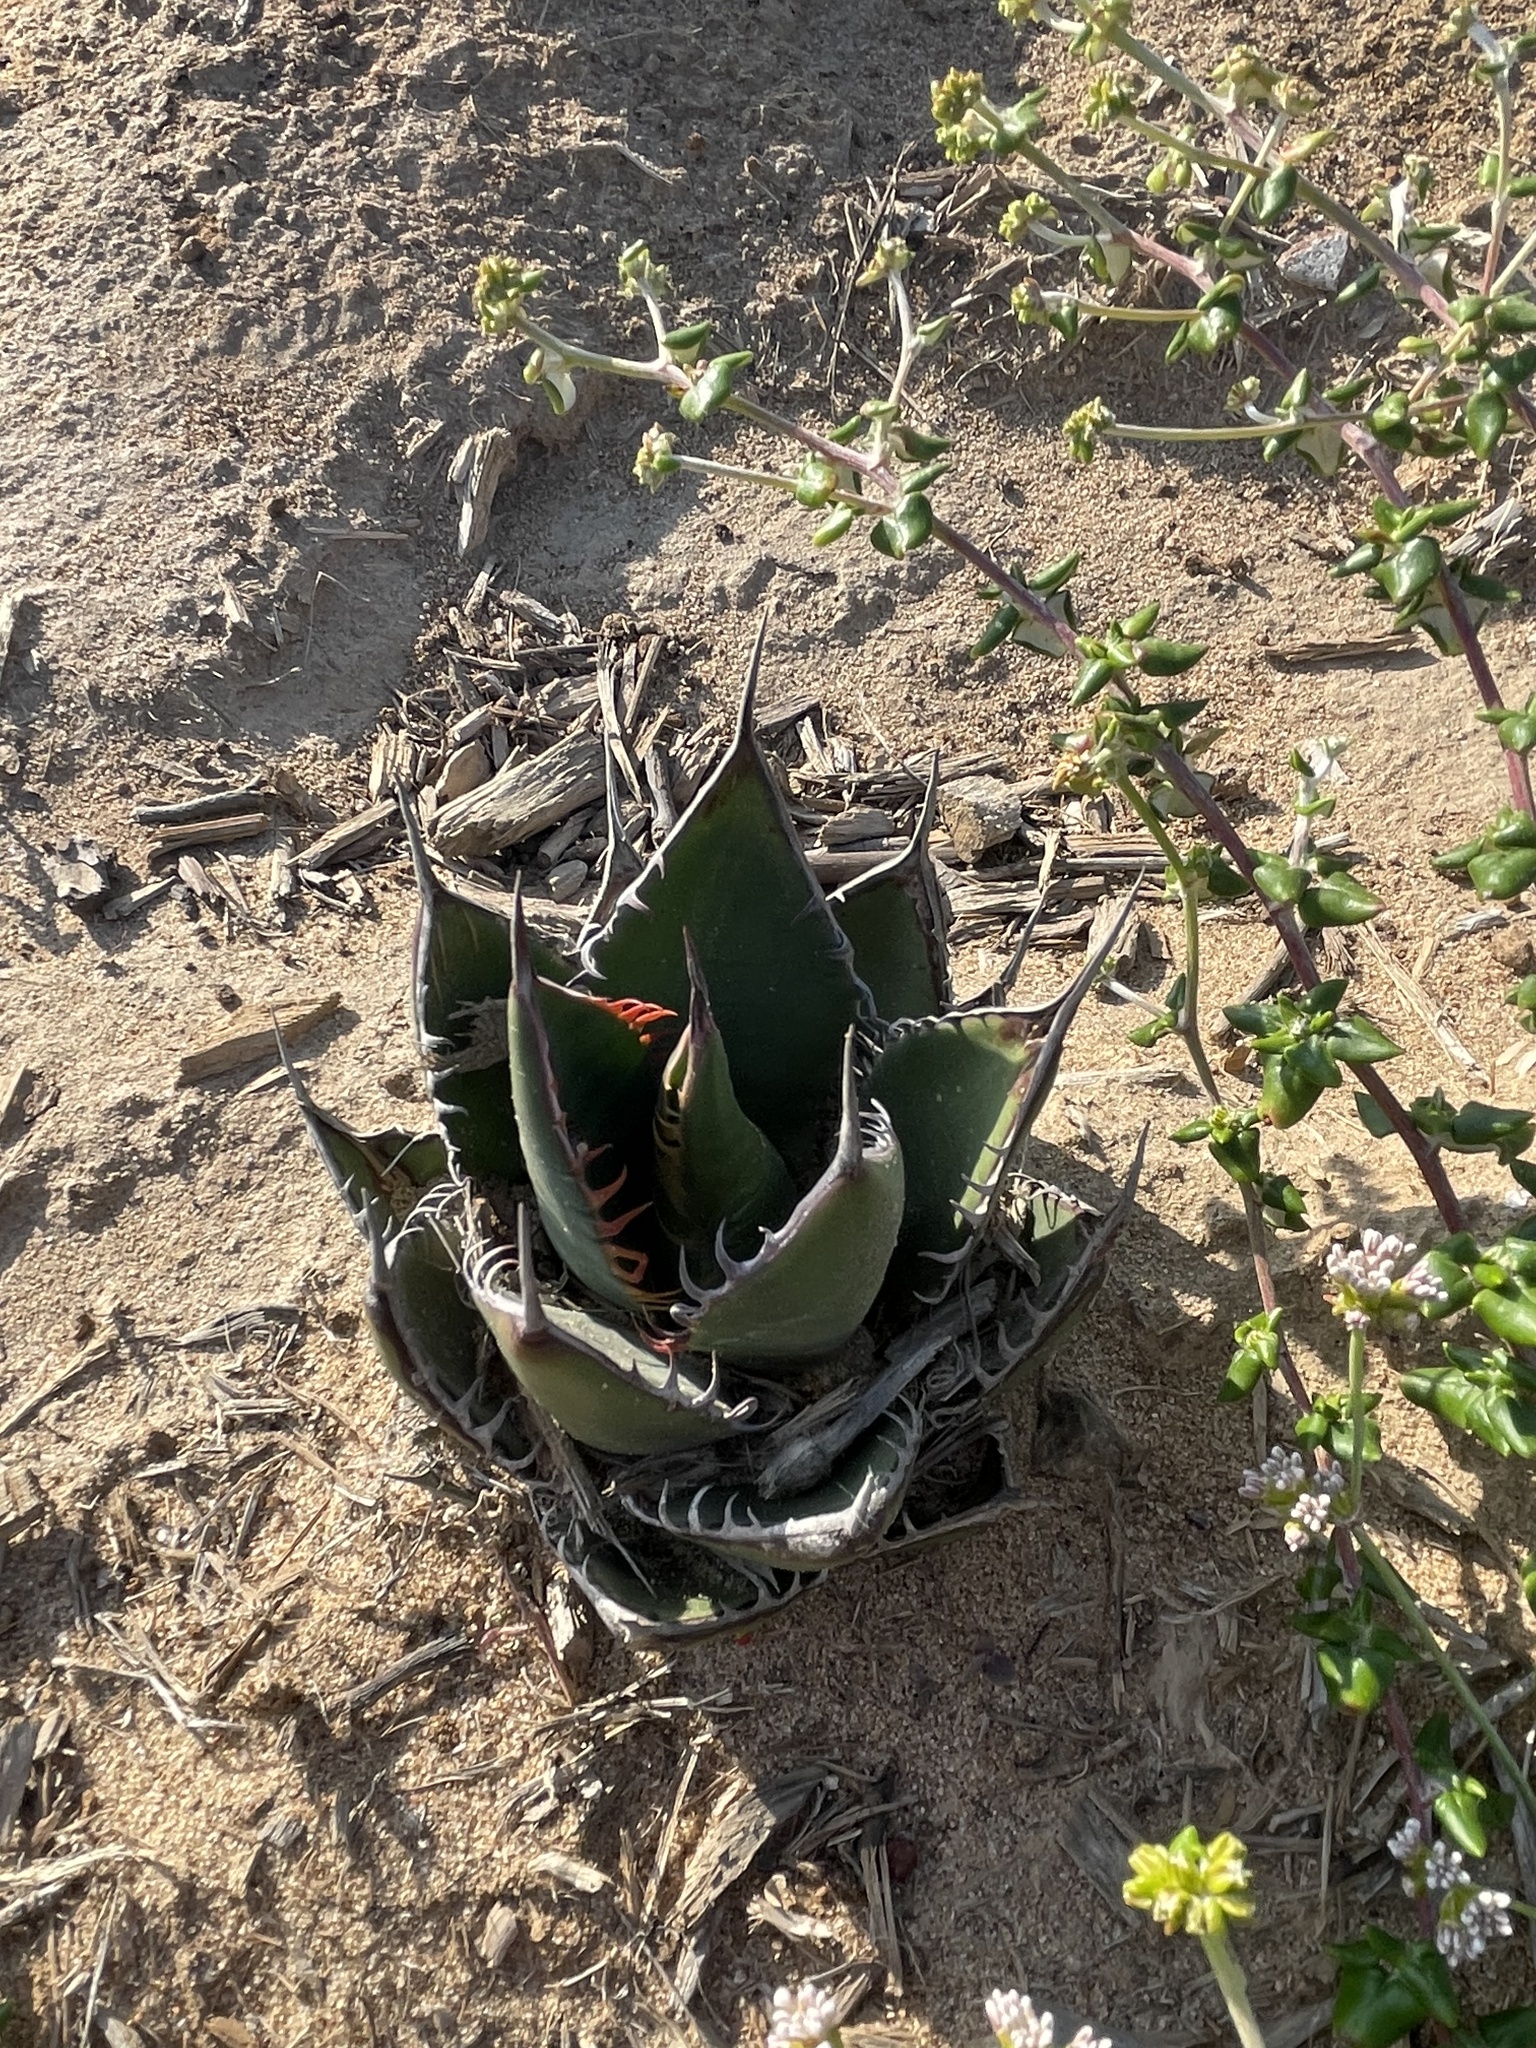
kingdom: Plantae
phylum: Tracheophyta
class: Liliopsida
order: Asparagales
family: Asparagaceae
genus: Agave
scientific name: Agave shawii
